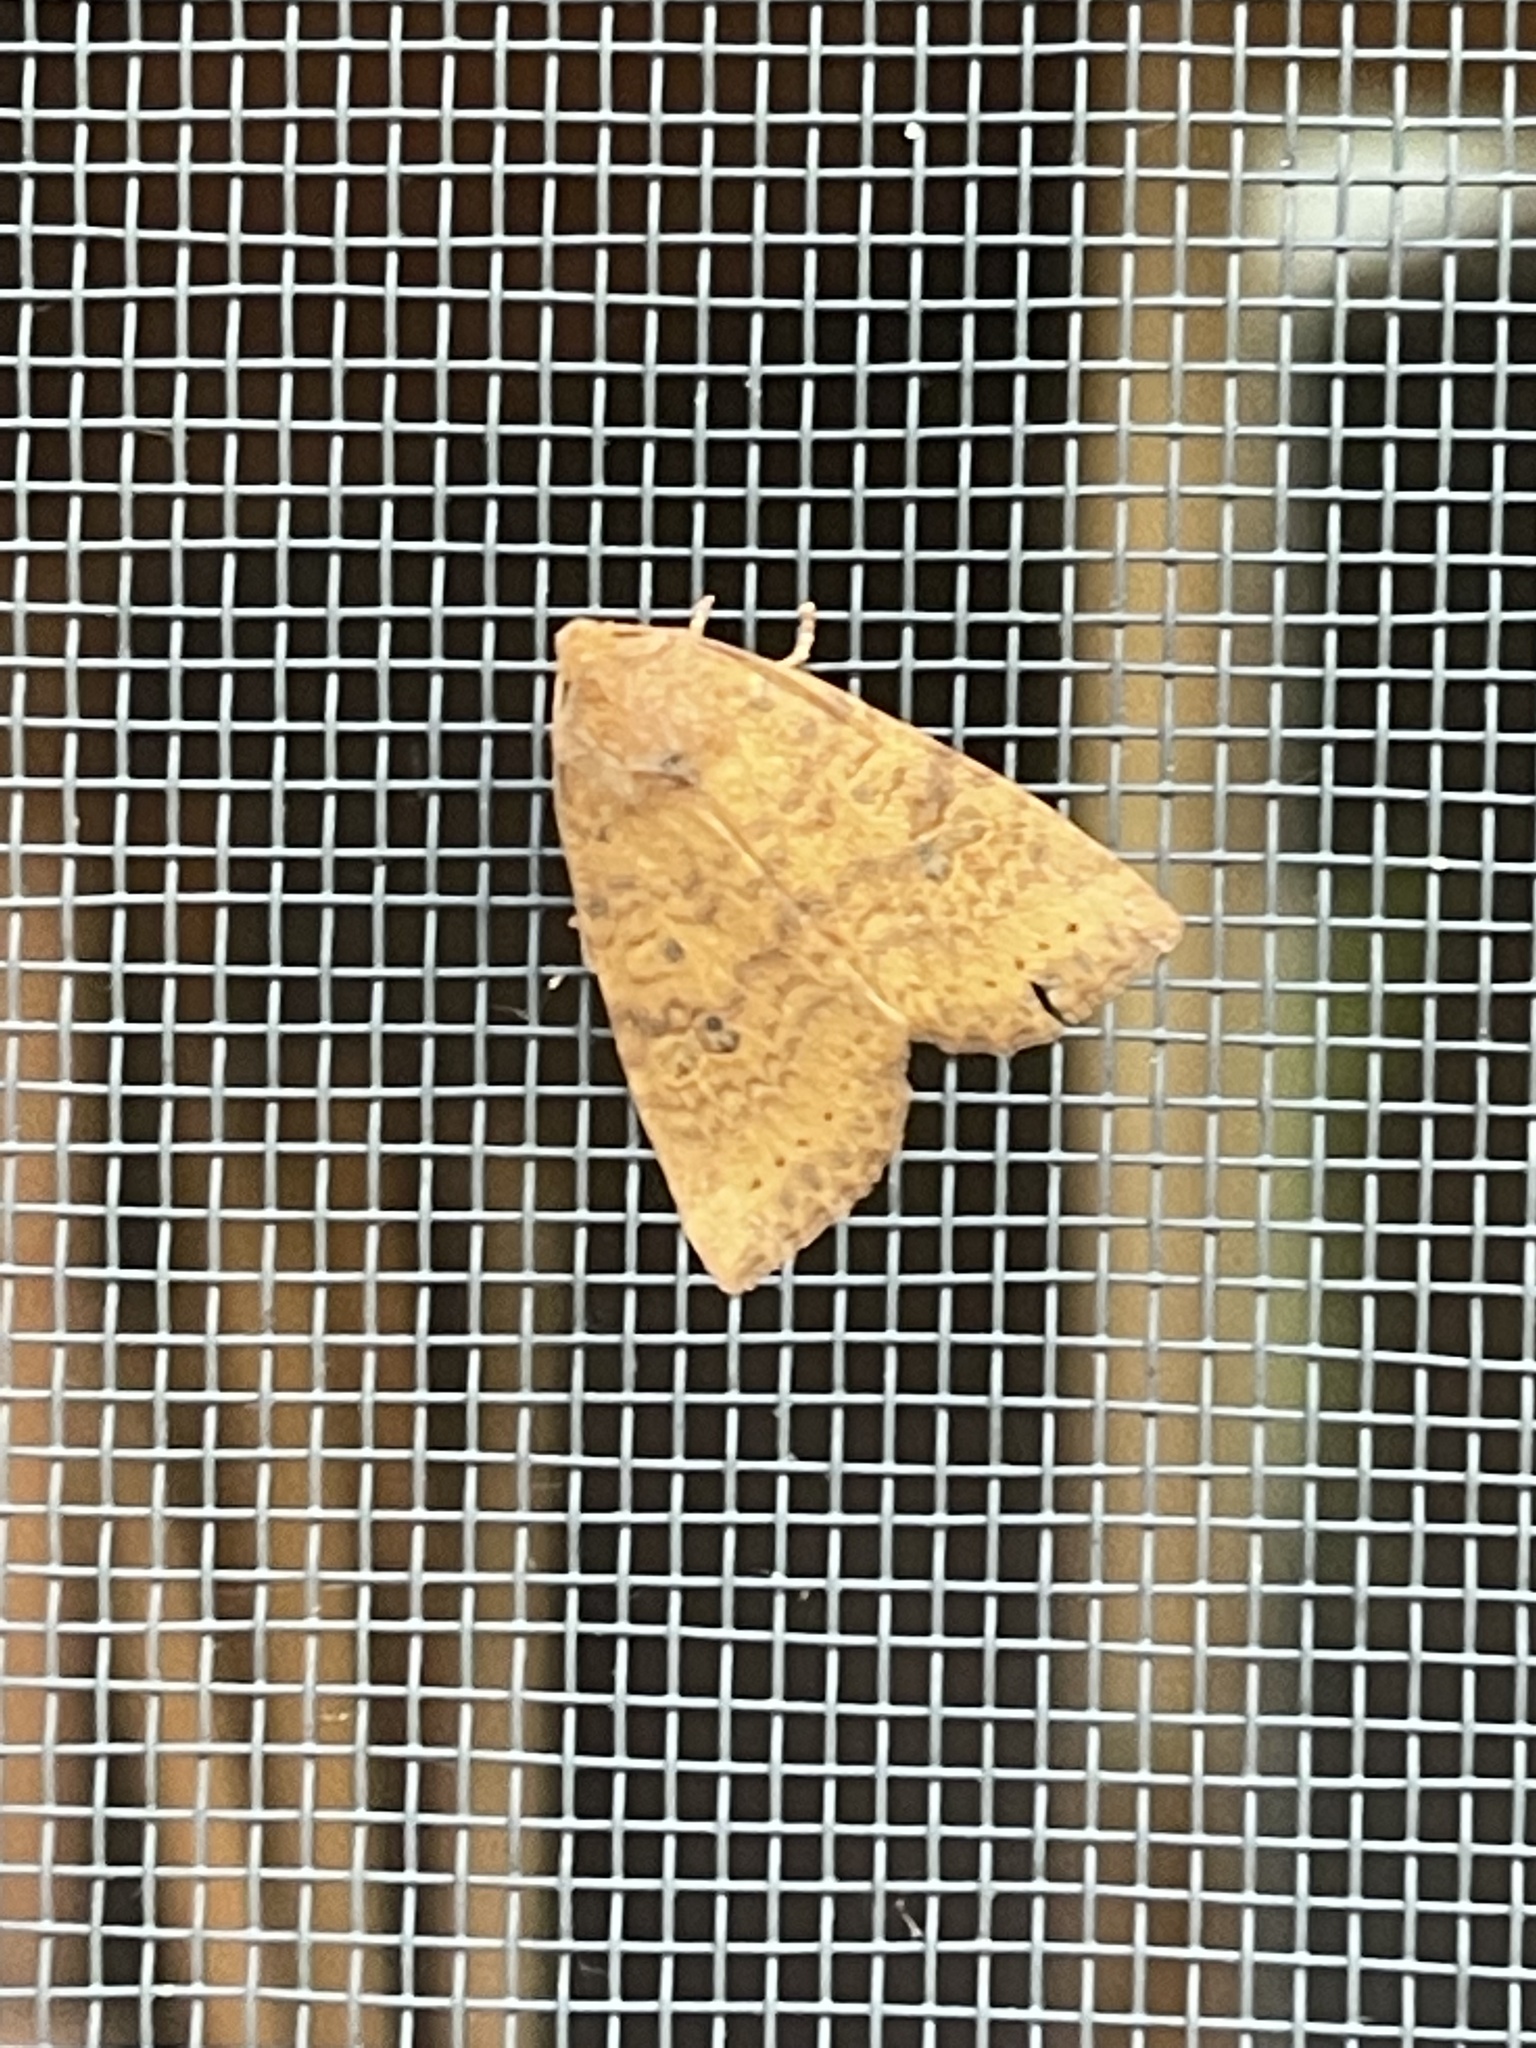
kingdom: Animalia
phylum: Arthropoda
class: Insecta
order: Lepidoptera
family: Noctuidae
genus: Anathix
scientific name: Anathix ralla
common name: Dotted sallow
